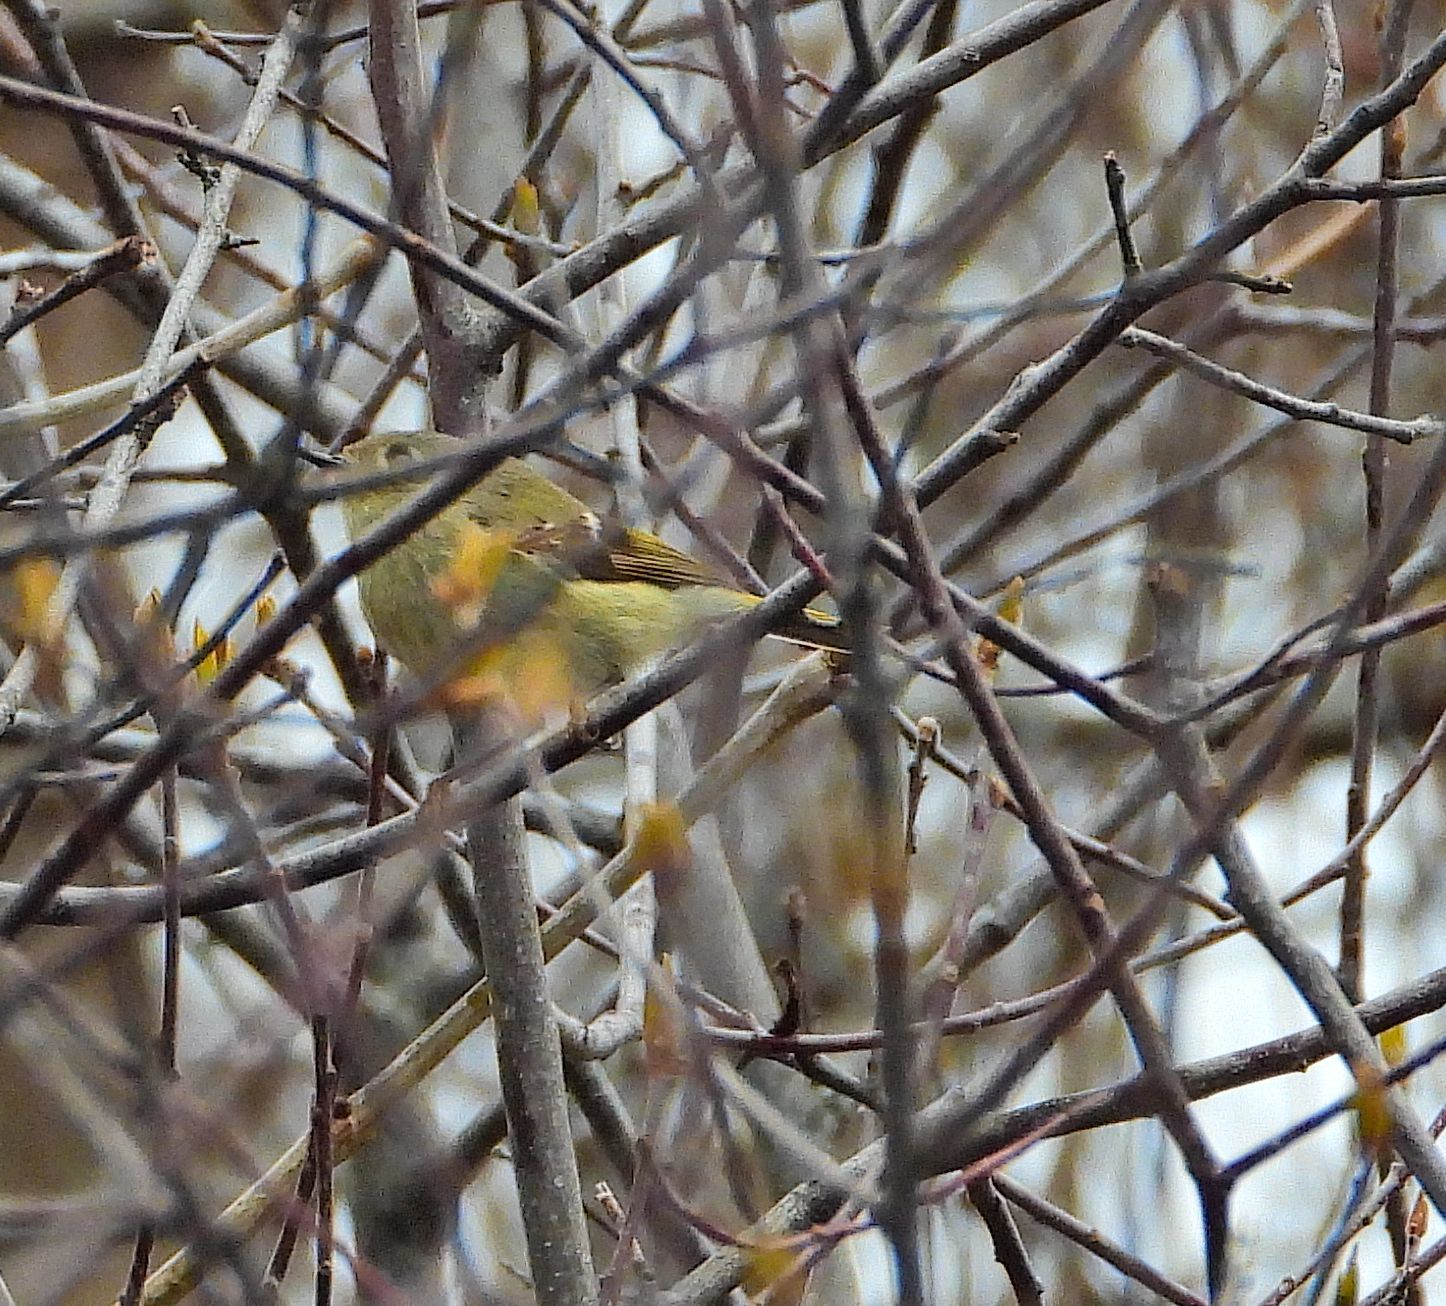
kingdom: Animalia
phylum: Chordata
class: Aves
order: Passeriformes
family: Regulidae
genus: Regulus
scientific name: Regulus calendula
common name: Ruby-crowned kinglet
